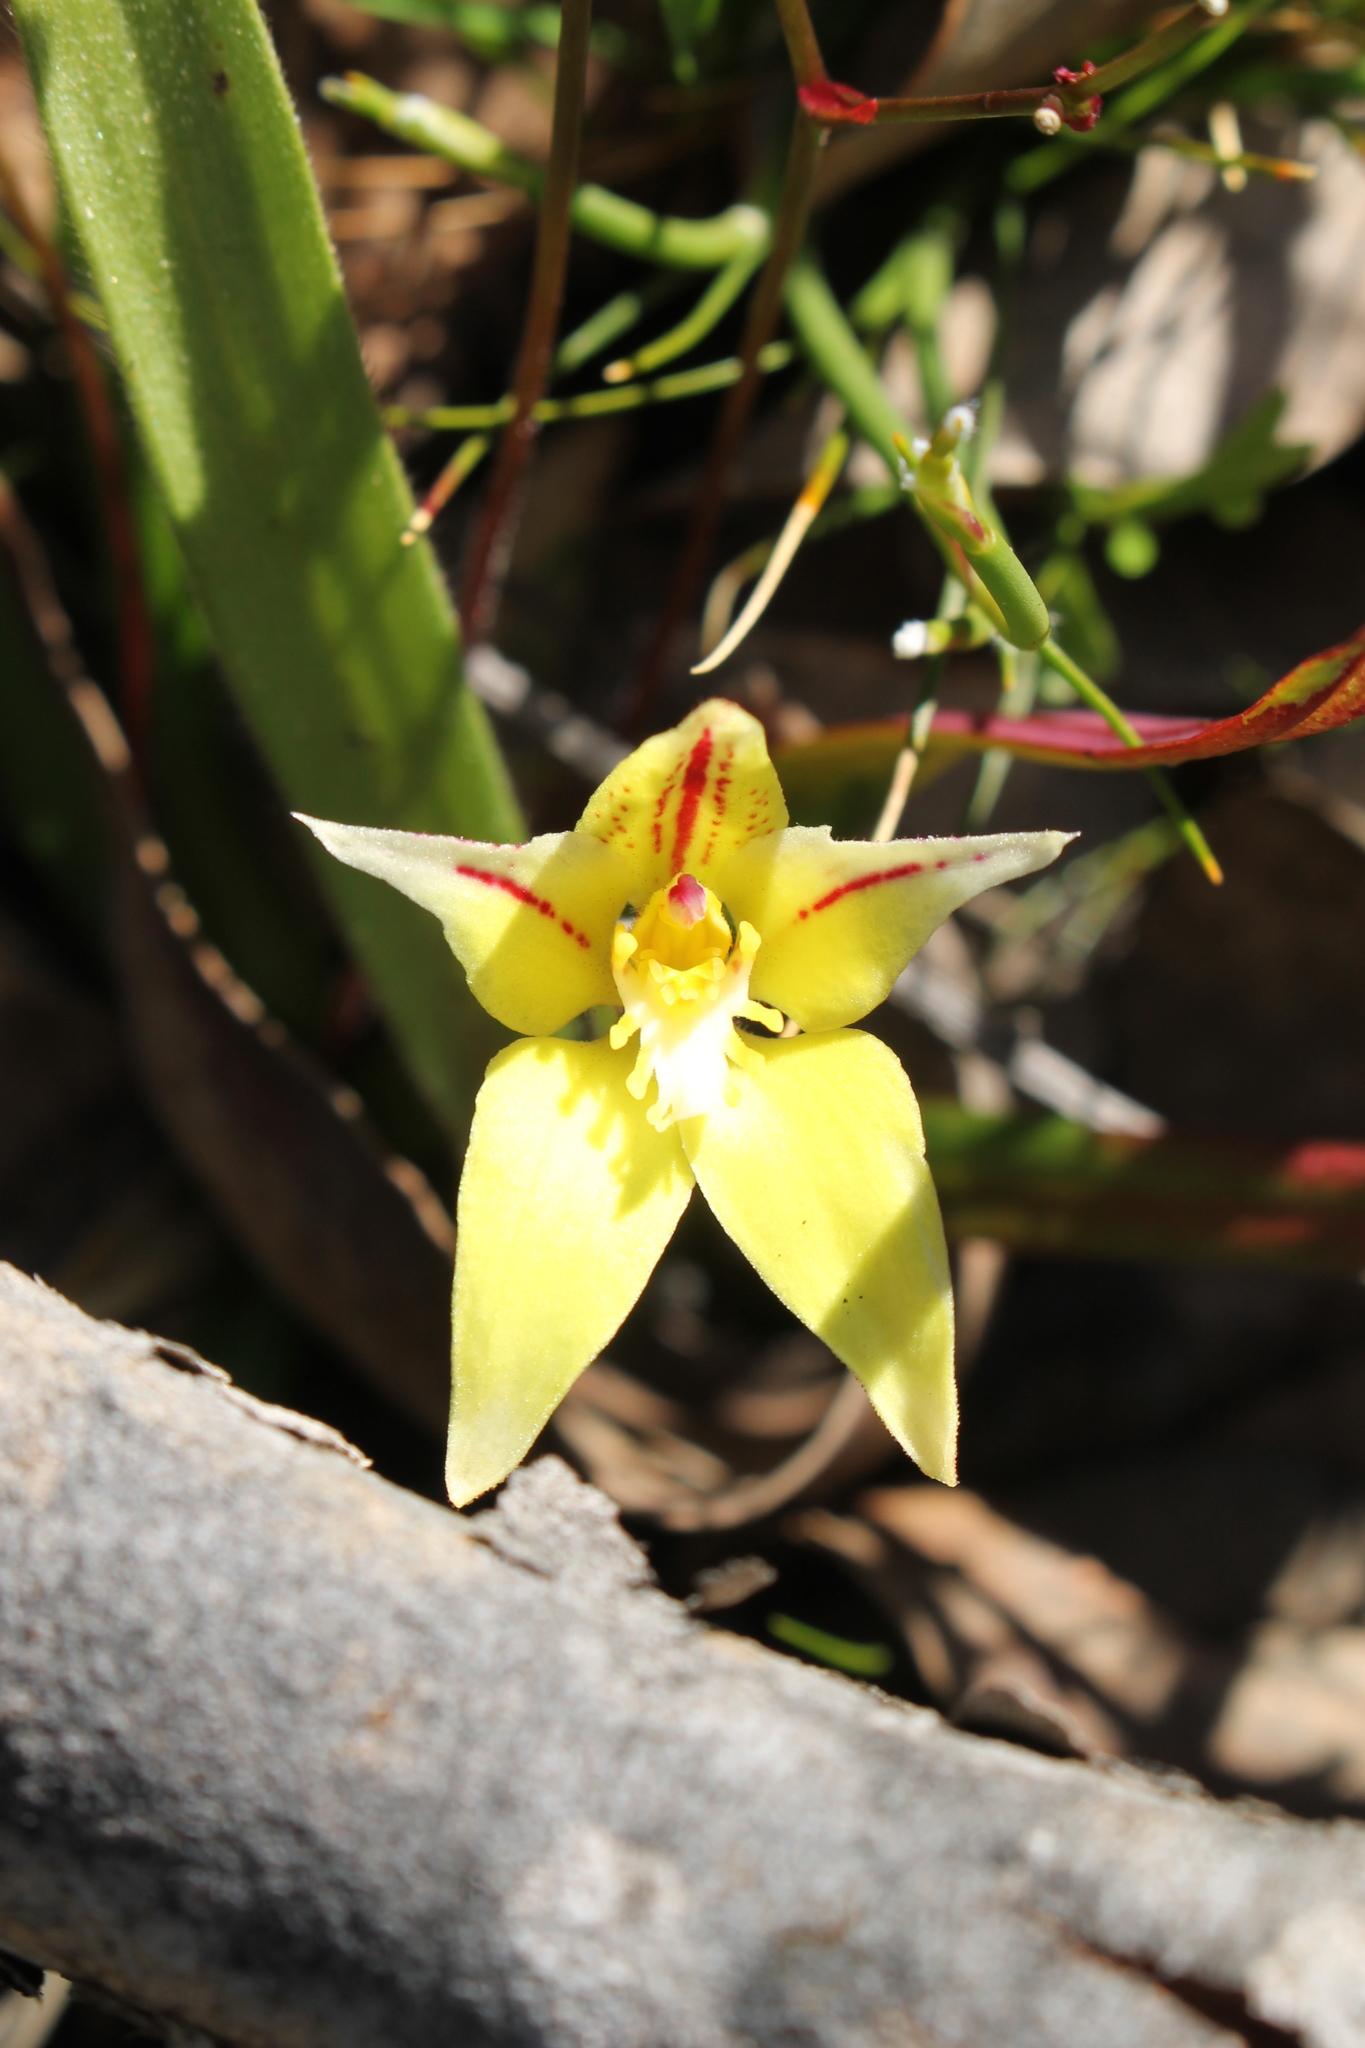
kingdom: Plantae
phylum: Tracheophyta
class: Liliopsida
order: Asparagales
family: Orchidaceae
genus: Caladenia
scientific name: Caladenia flava
